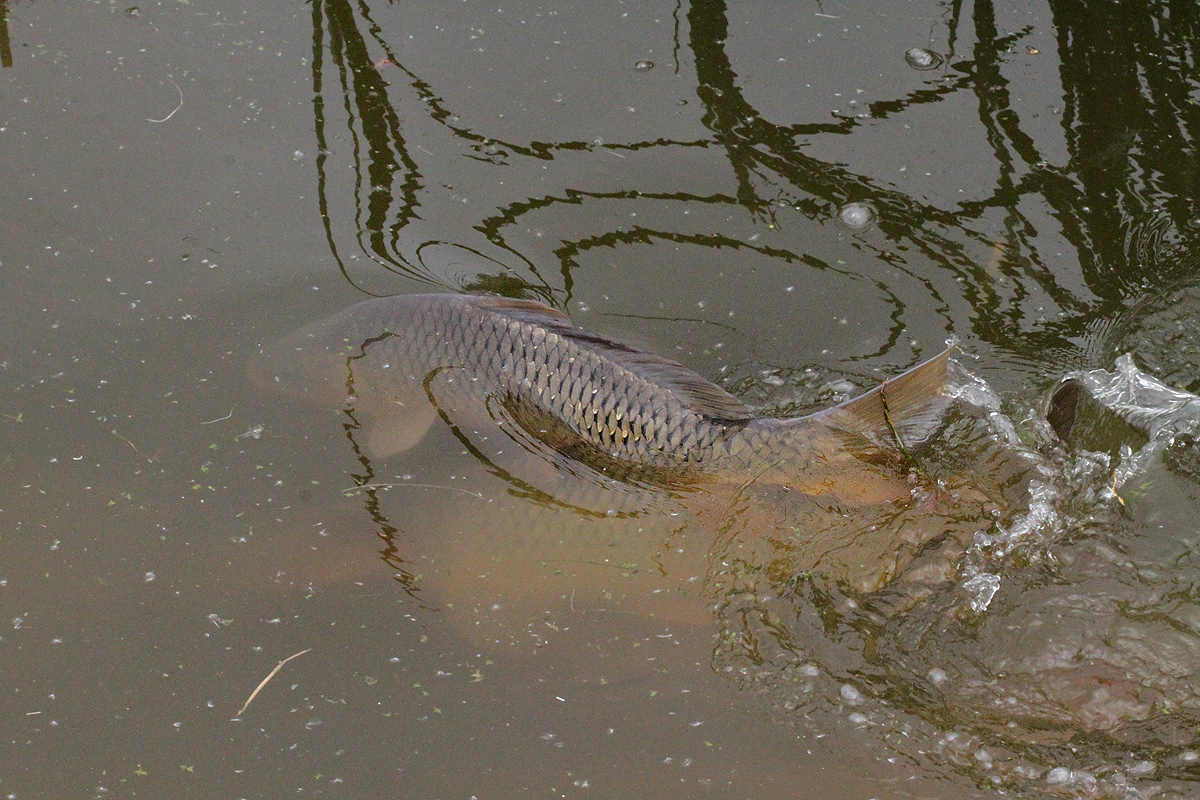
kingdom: Animalia
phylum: Chordata
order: Cypriniformes
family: Cyprinidae
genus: Cyprinus
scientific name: Cyprinus carpio
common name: Common carp
